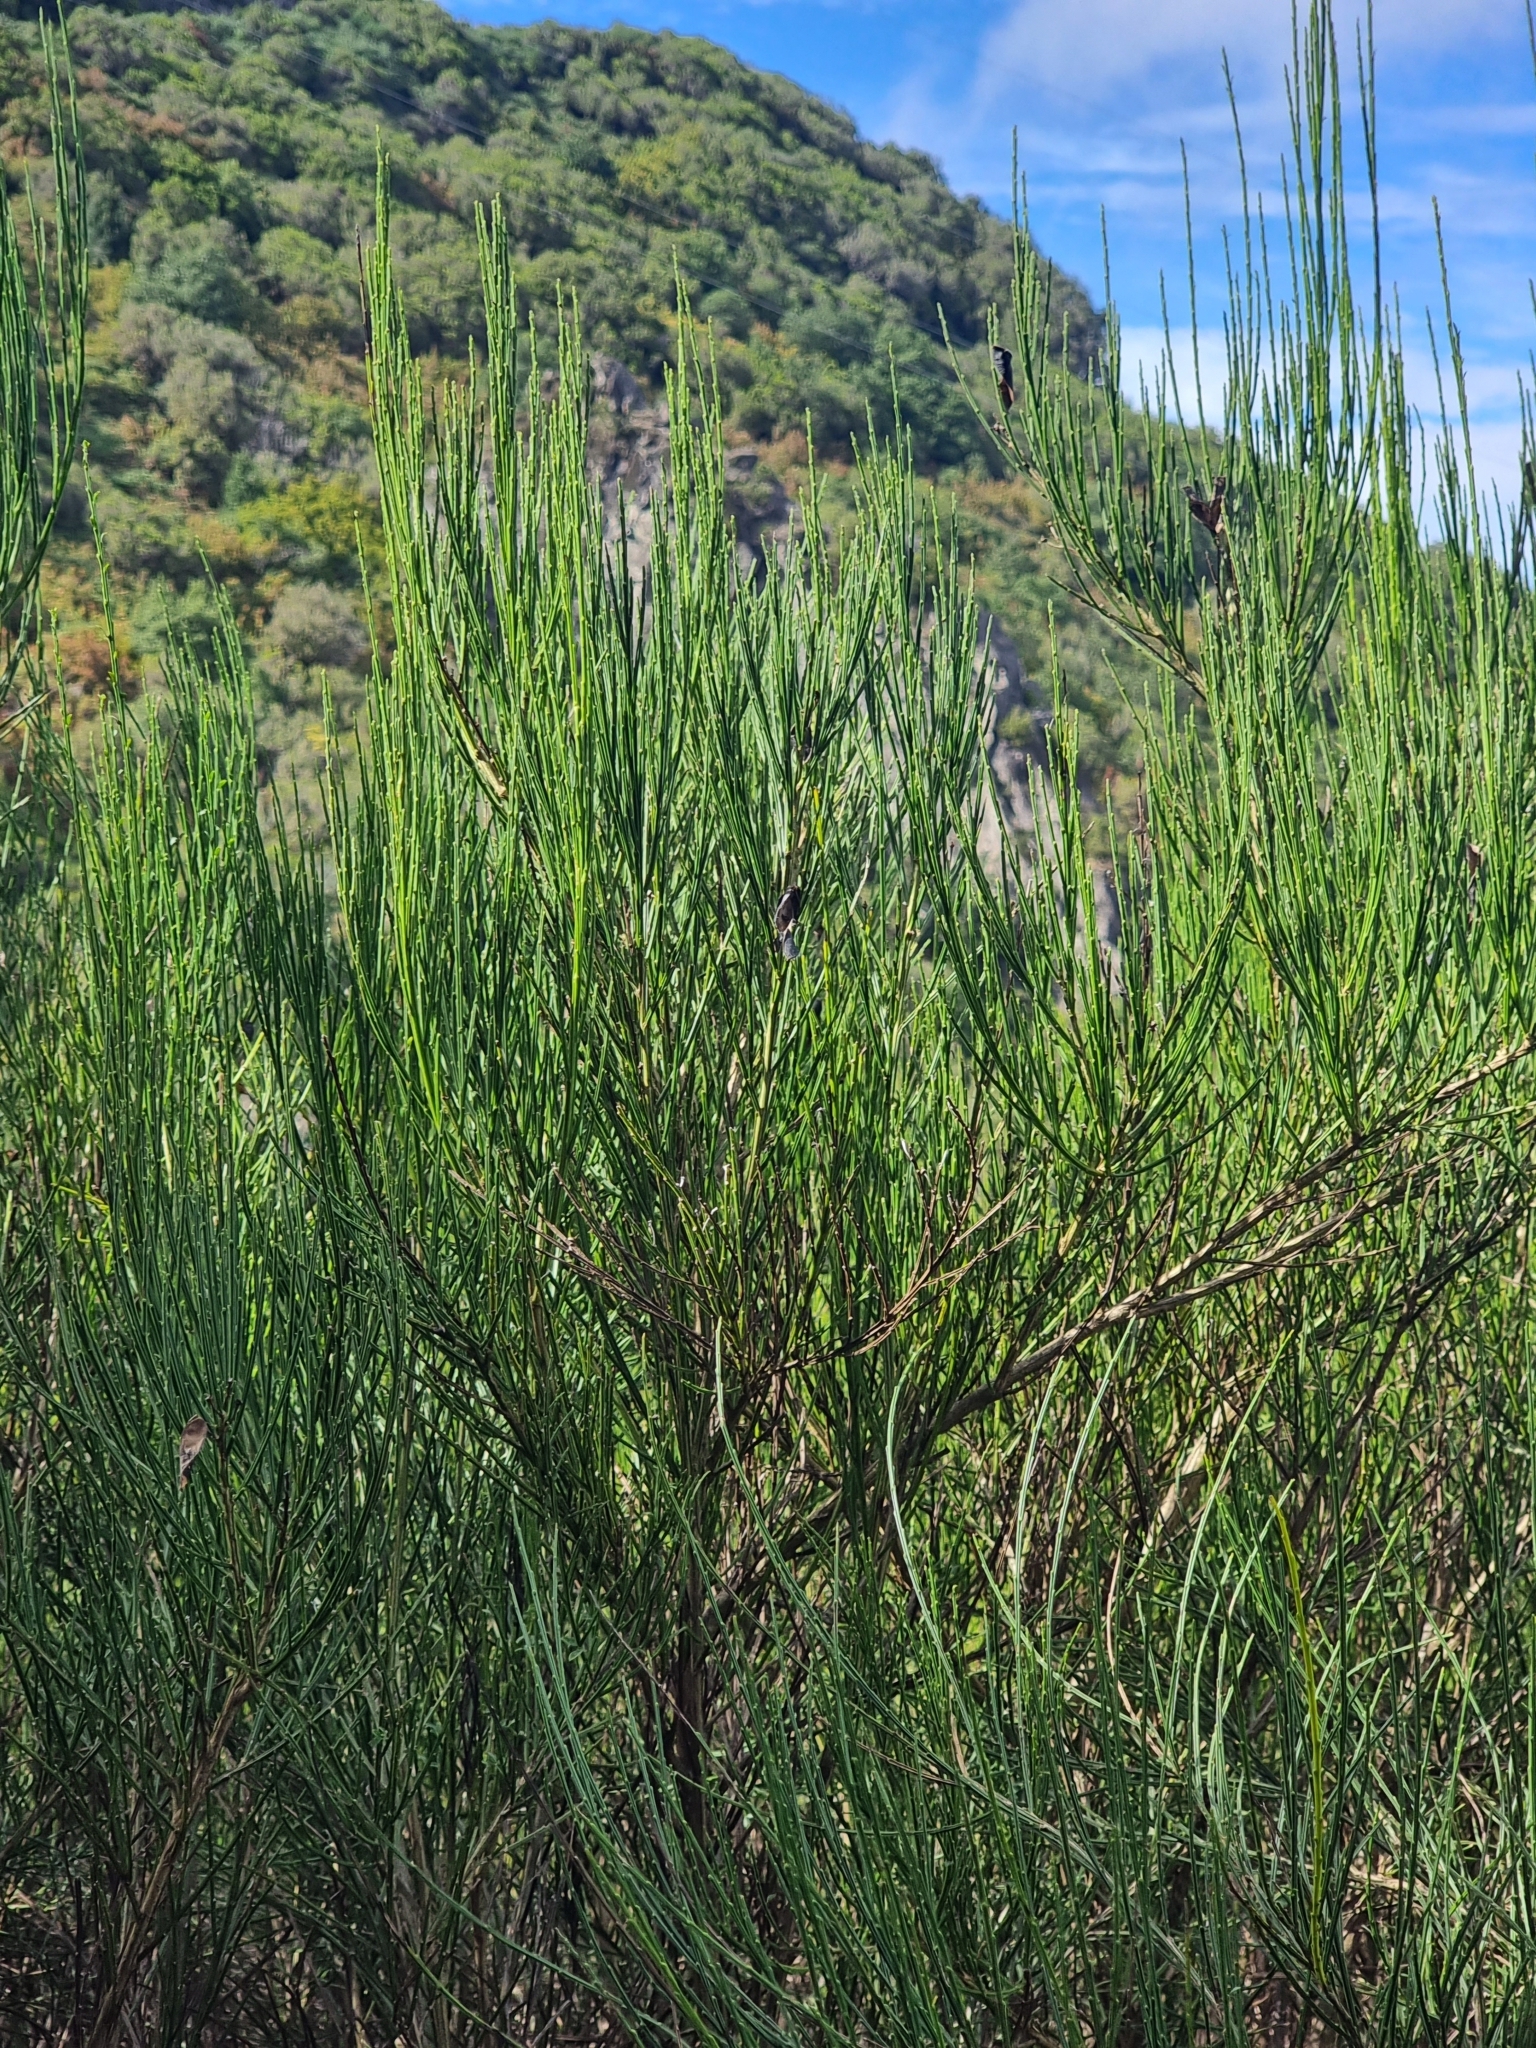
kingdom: Plantae
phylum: Tracheophyta
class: Magnoliopsida
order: Fabales
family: Fabaceae
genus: Cytisus
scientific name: Cytisus scoparius
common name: Scotch broom
